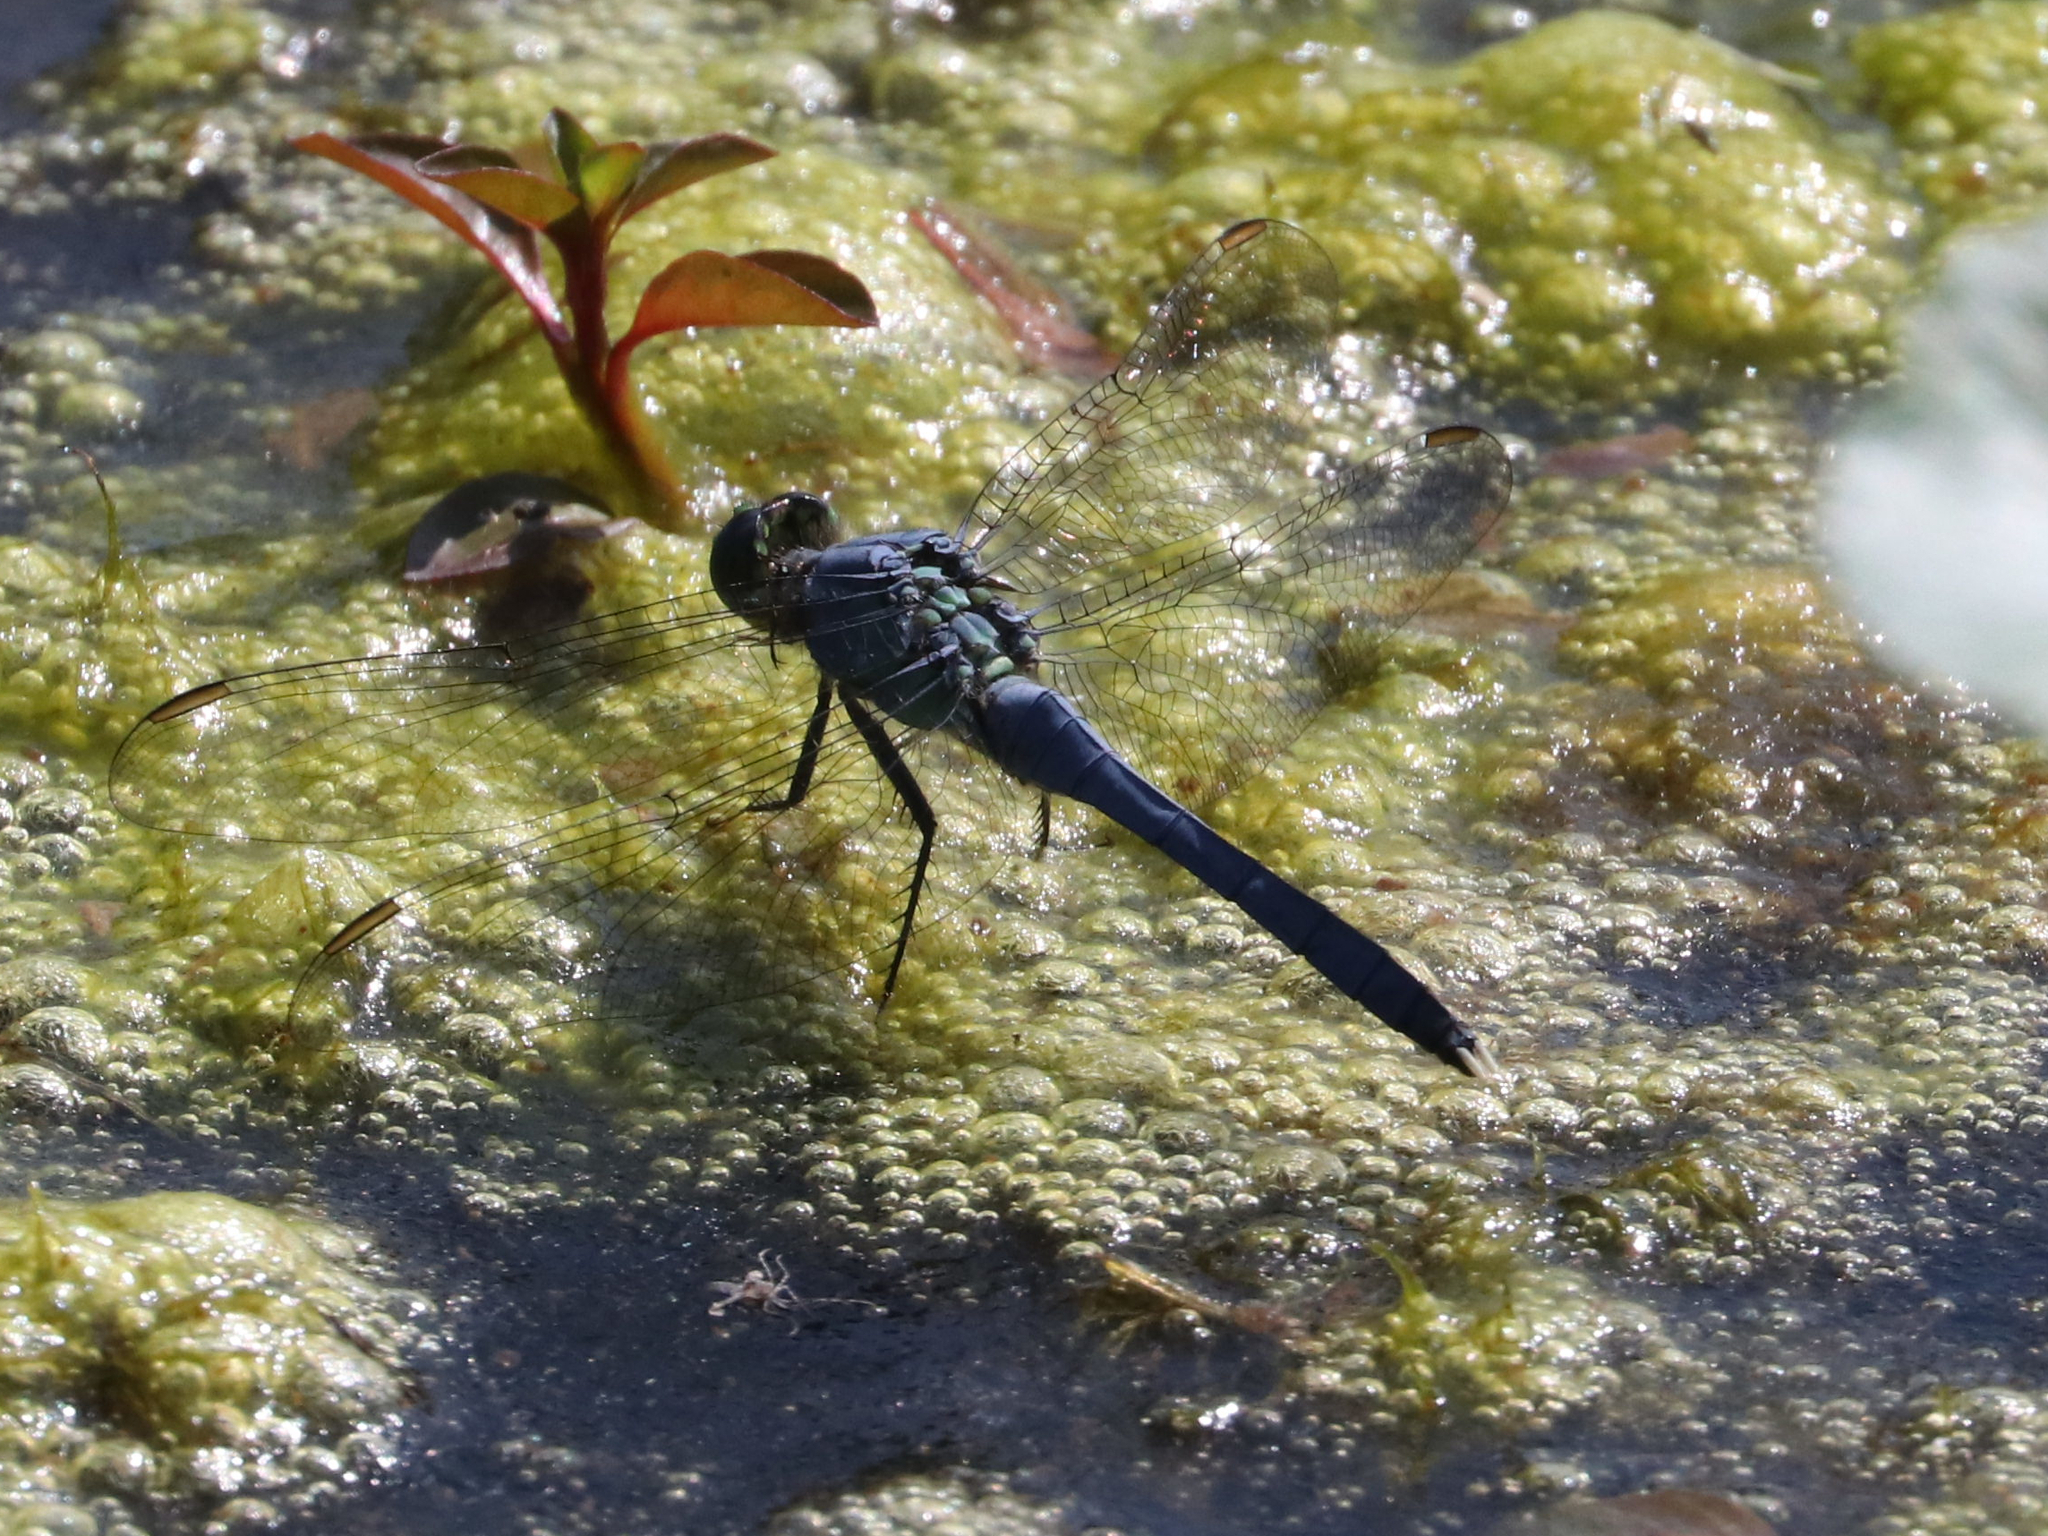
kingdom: Animalia
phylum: Arthropoda
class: Insecta
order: Odonata
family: Libellulidae
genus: Erythemis
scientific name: Erythemis simplicicollis
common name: Eastern pondhawk
